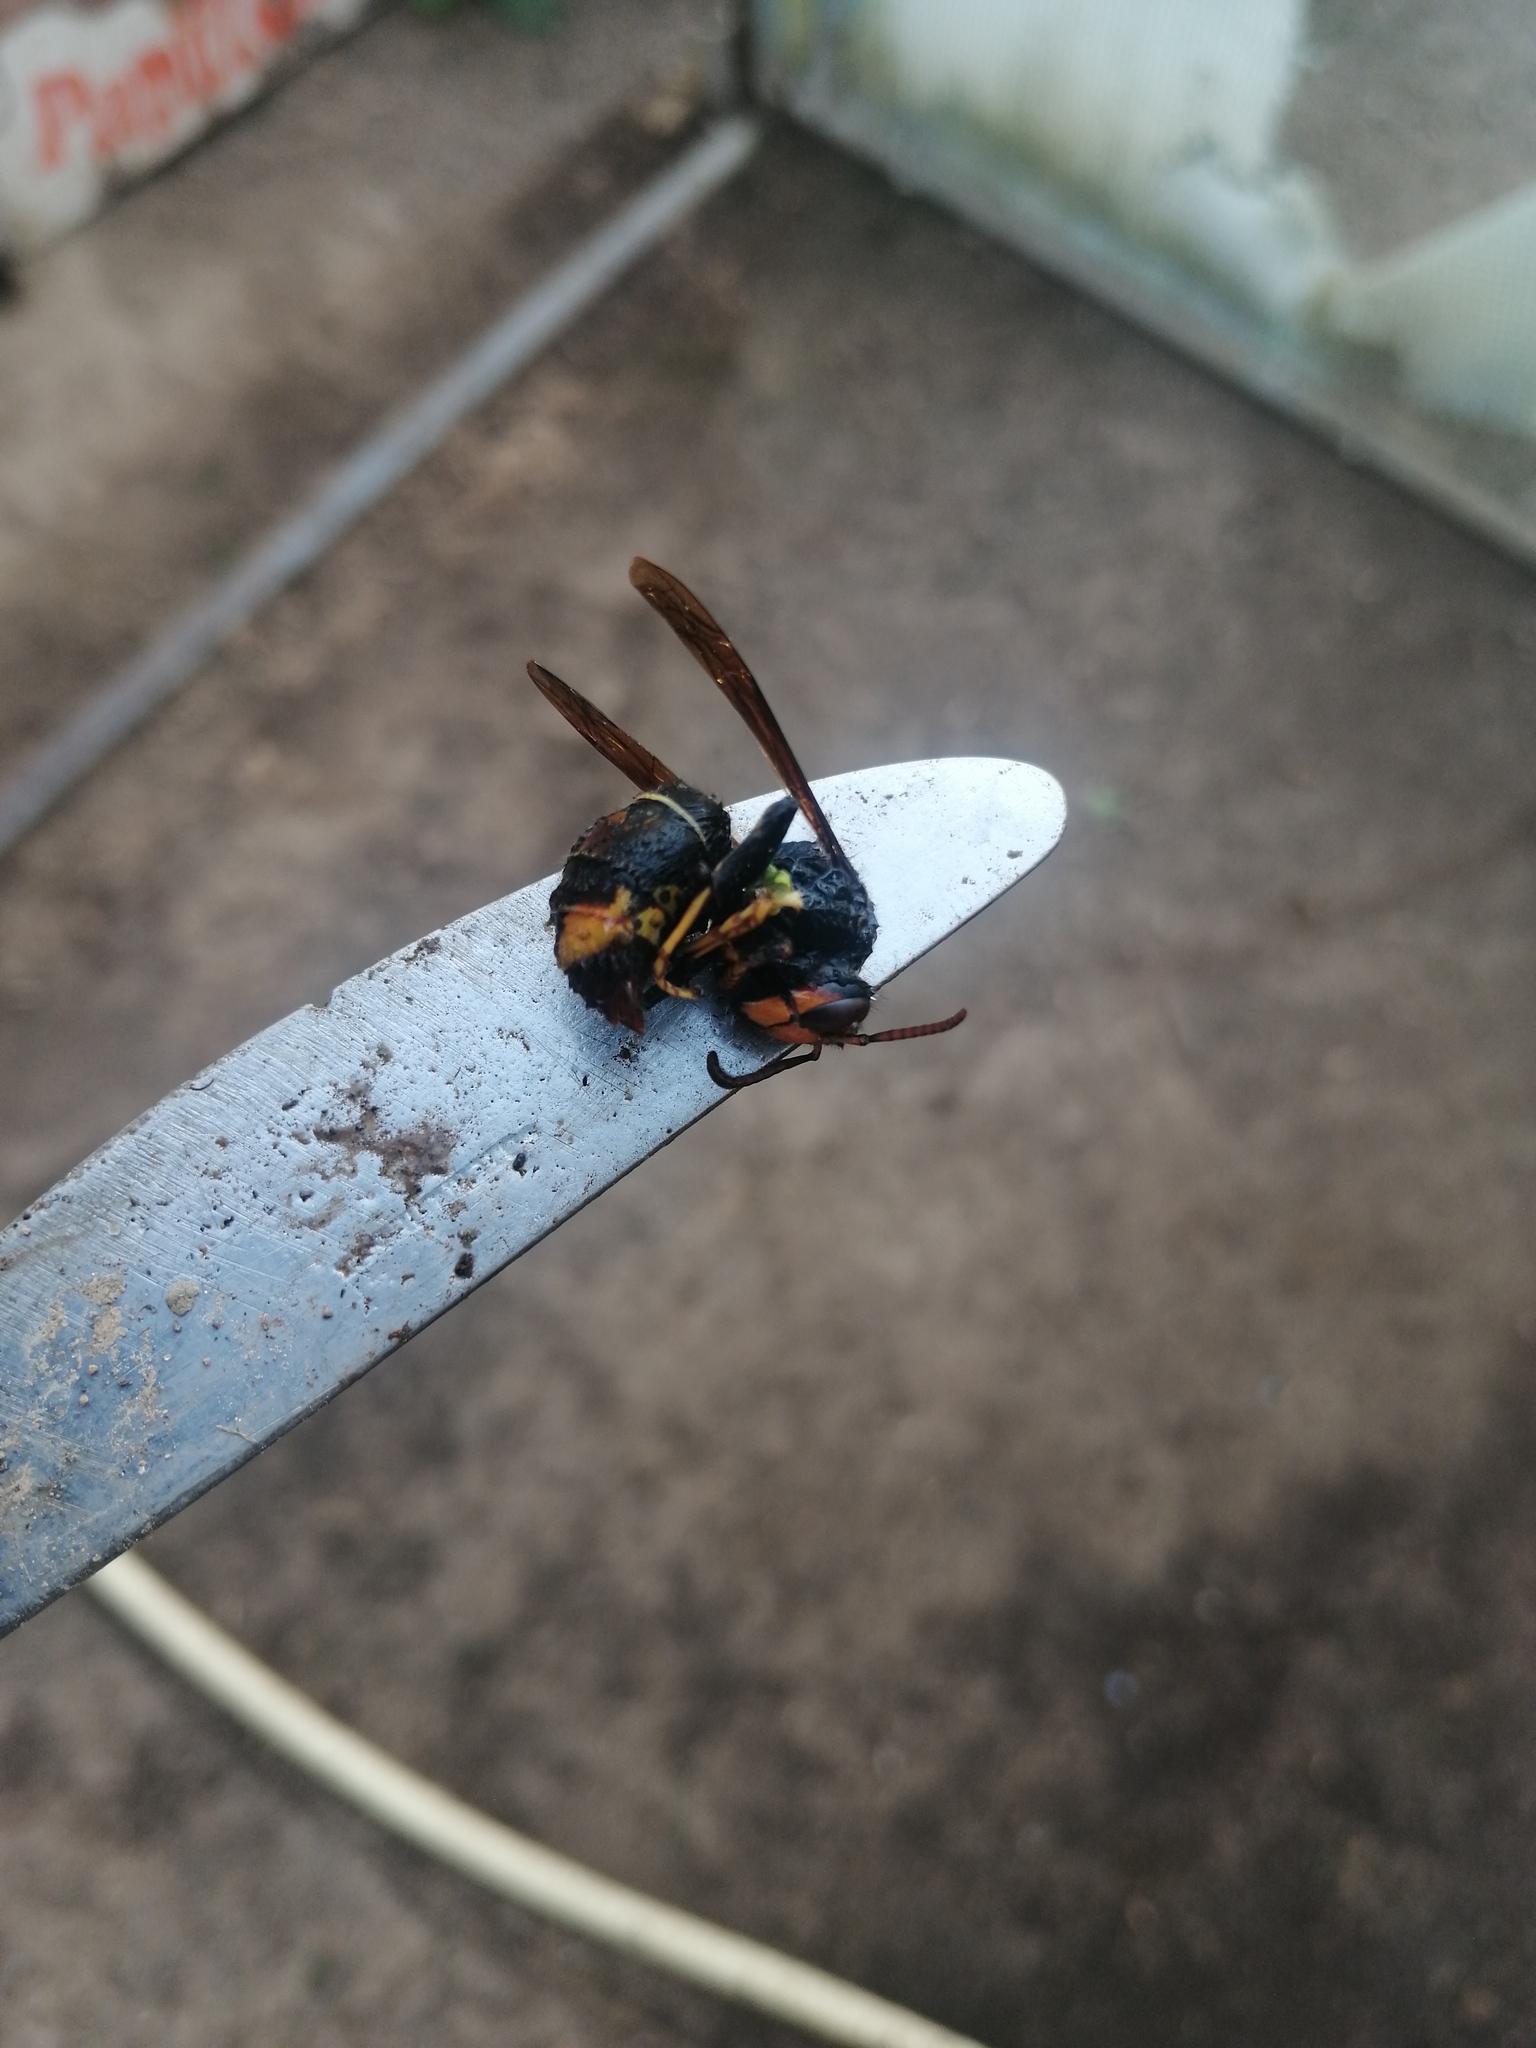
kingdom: Animalia
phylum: Arthropoda
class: Insecta
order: Hymenoptera
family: Vespidae
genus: Vespa
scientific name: Vespa velutina
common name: Asian hornet
